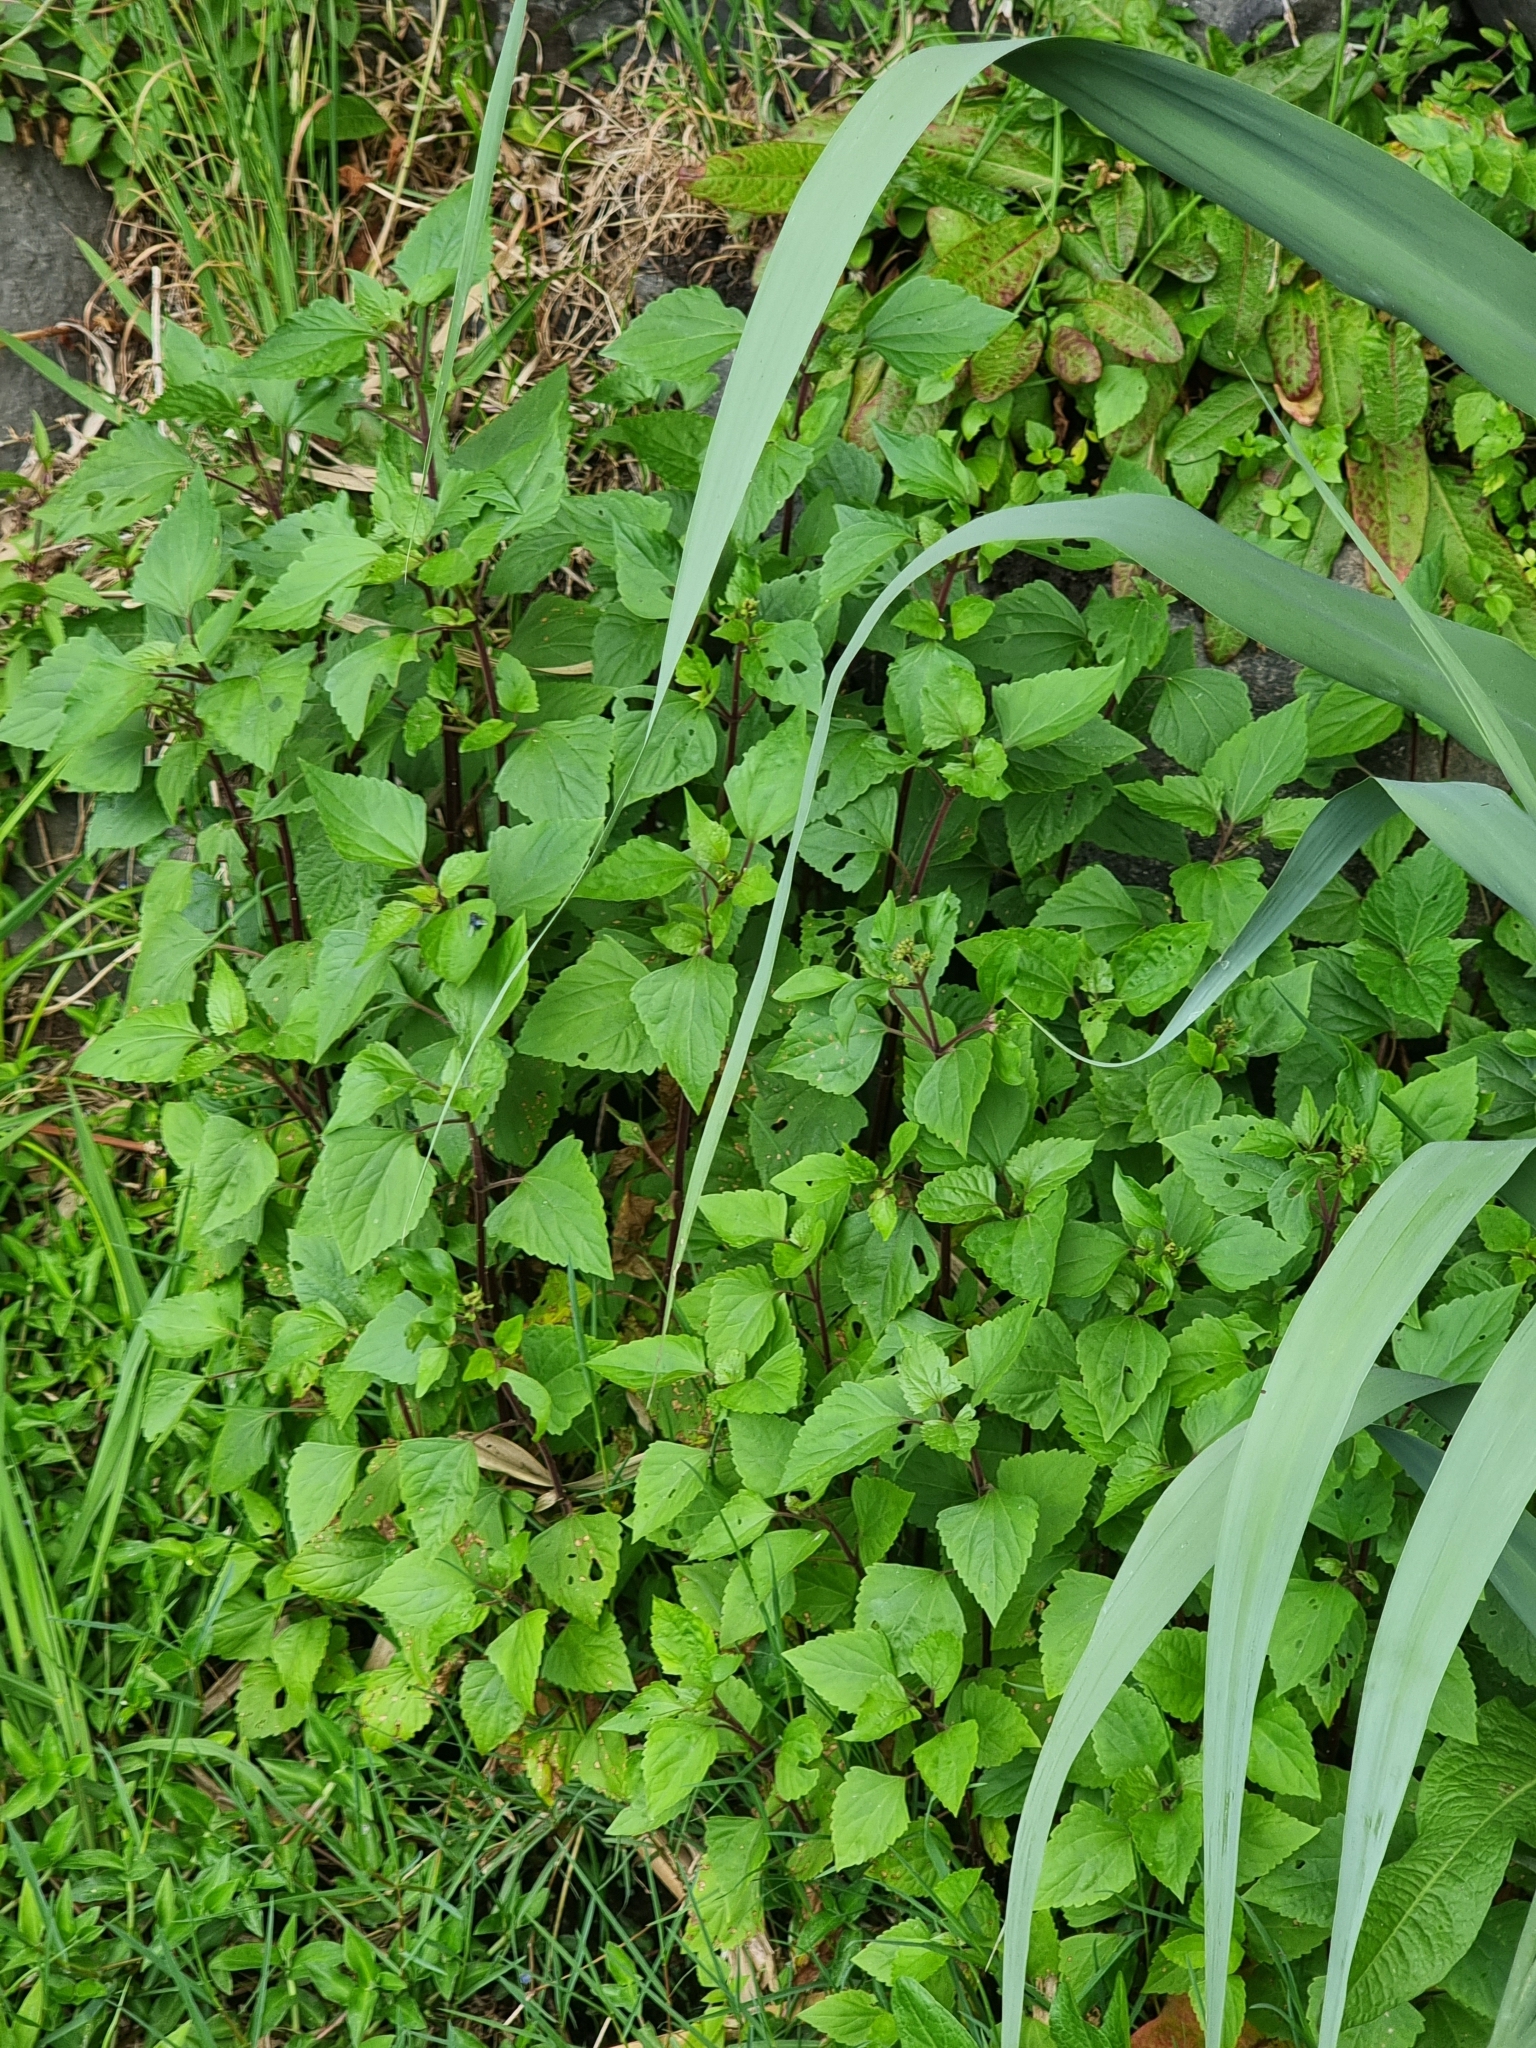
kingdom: Plantae
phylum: Tracheophyta
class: Magnoliopsida
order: Asterales
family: Asteraceae
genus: Ageratina
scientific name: Ageratina adenophora
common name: Sticky snakeroot
